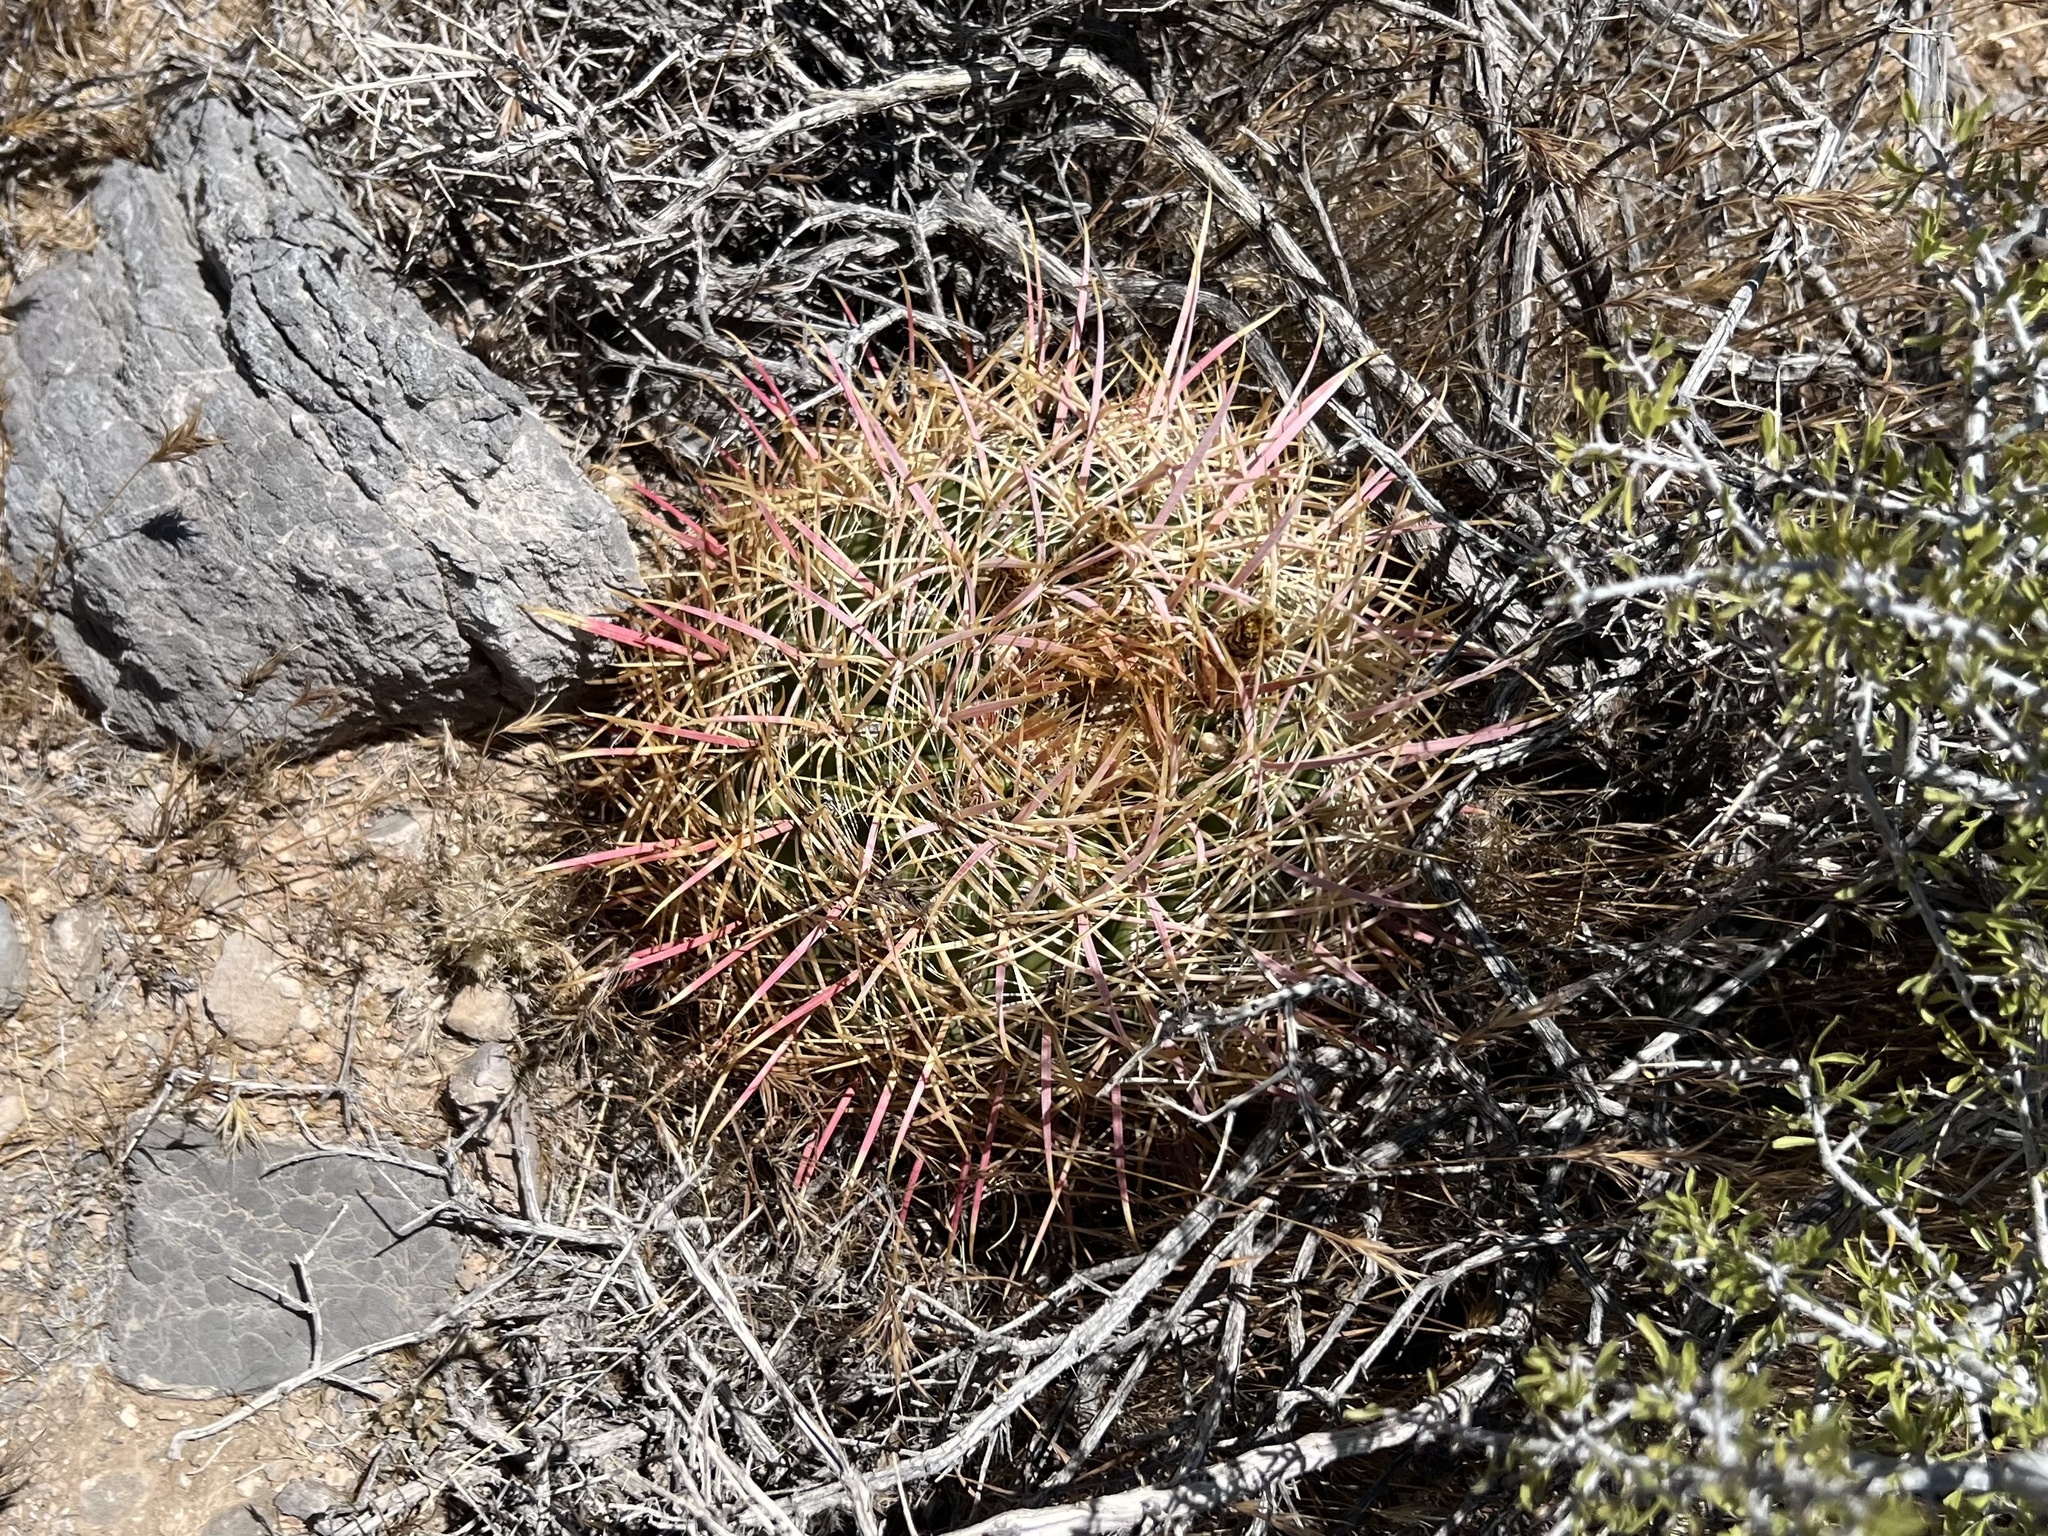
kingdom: Plantae
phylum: Tracheophyta
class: Magnoliopsida
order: Caryophyllales
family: Cactaceae
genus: Ferocactus
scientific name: Ferocactus cylindraceus
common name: California barrel cactus
